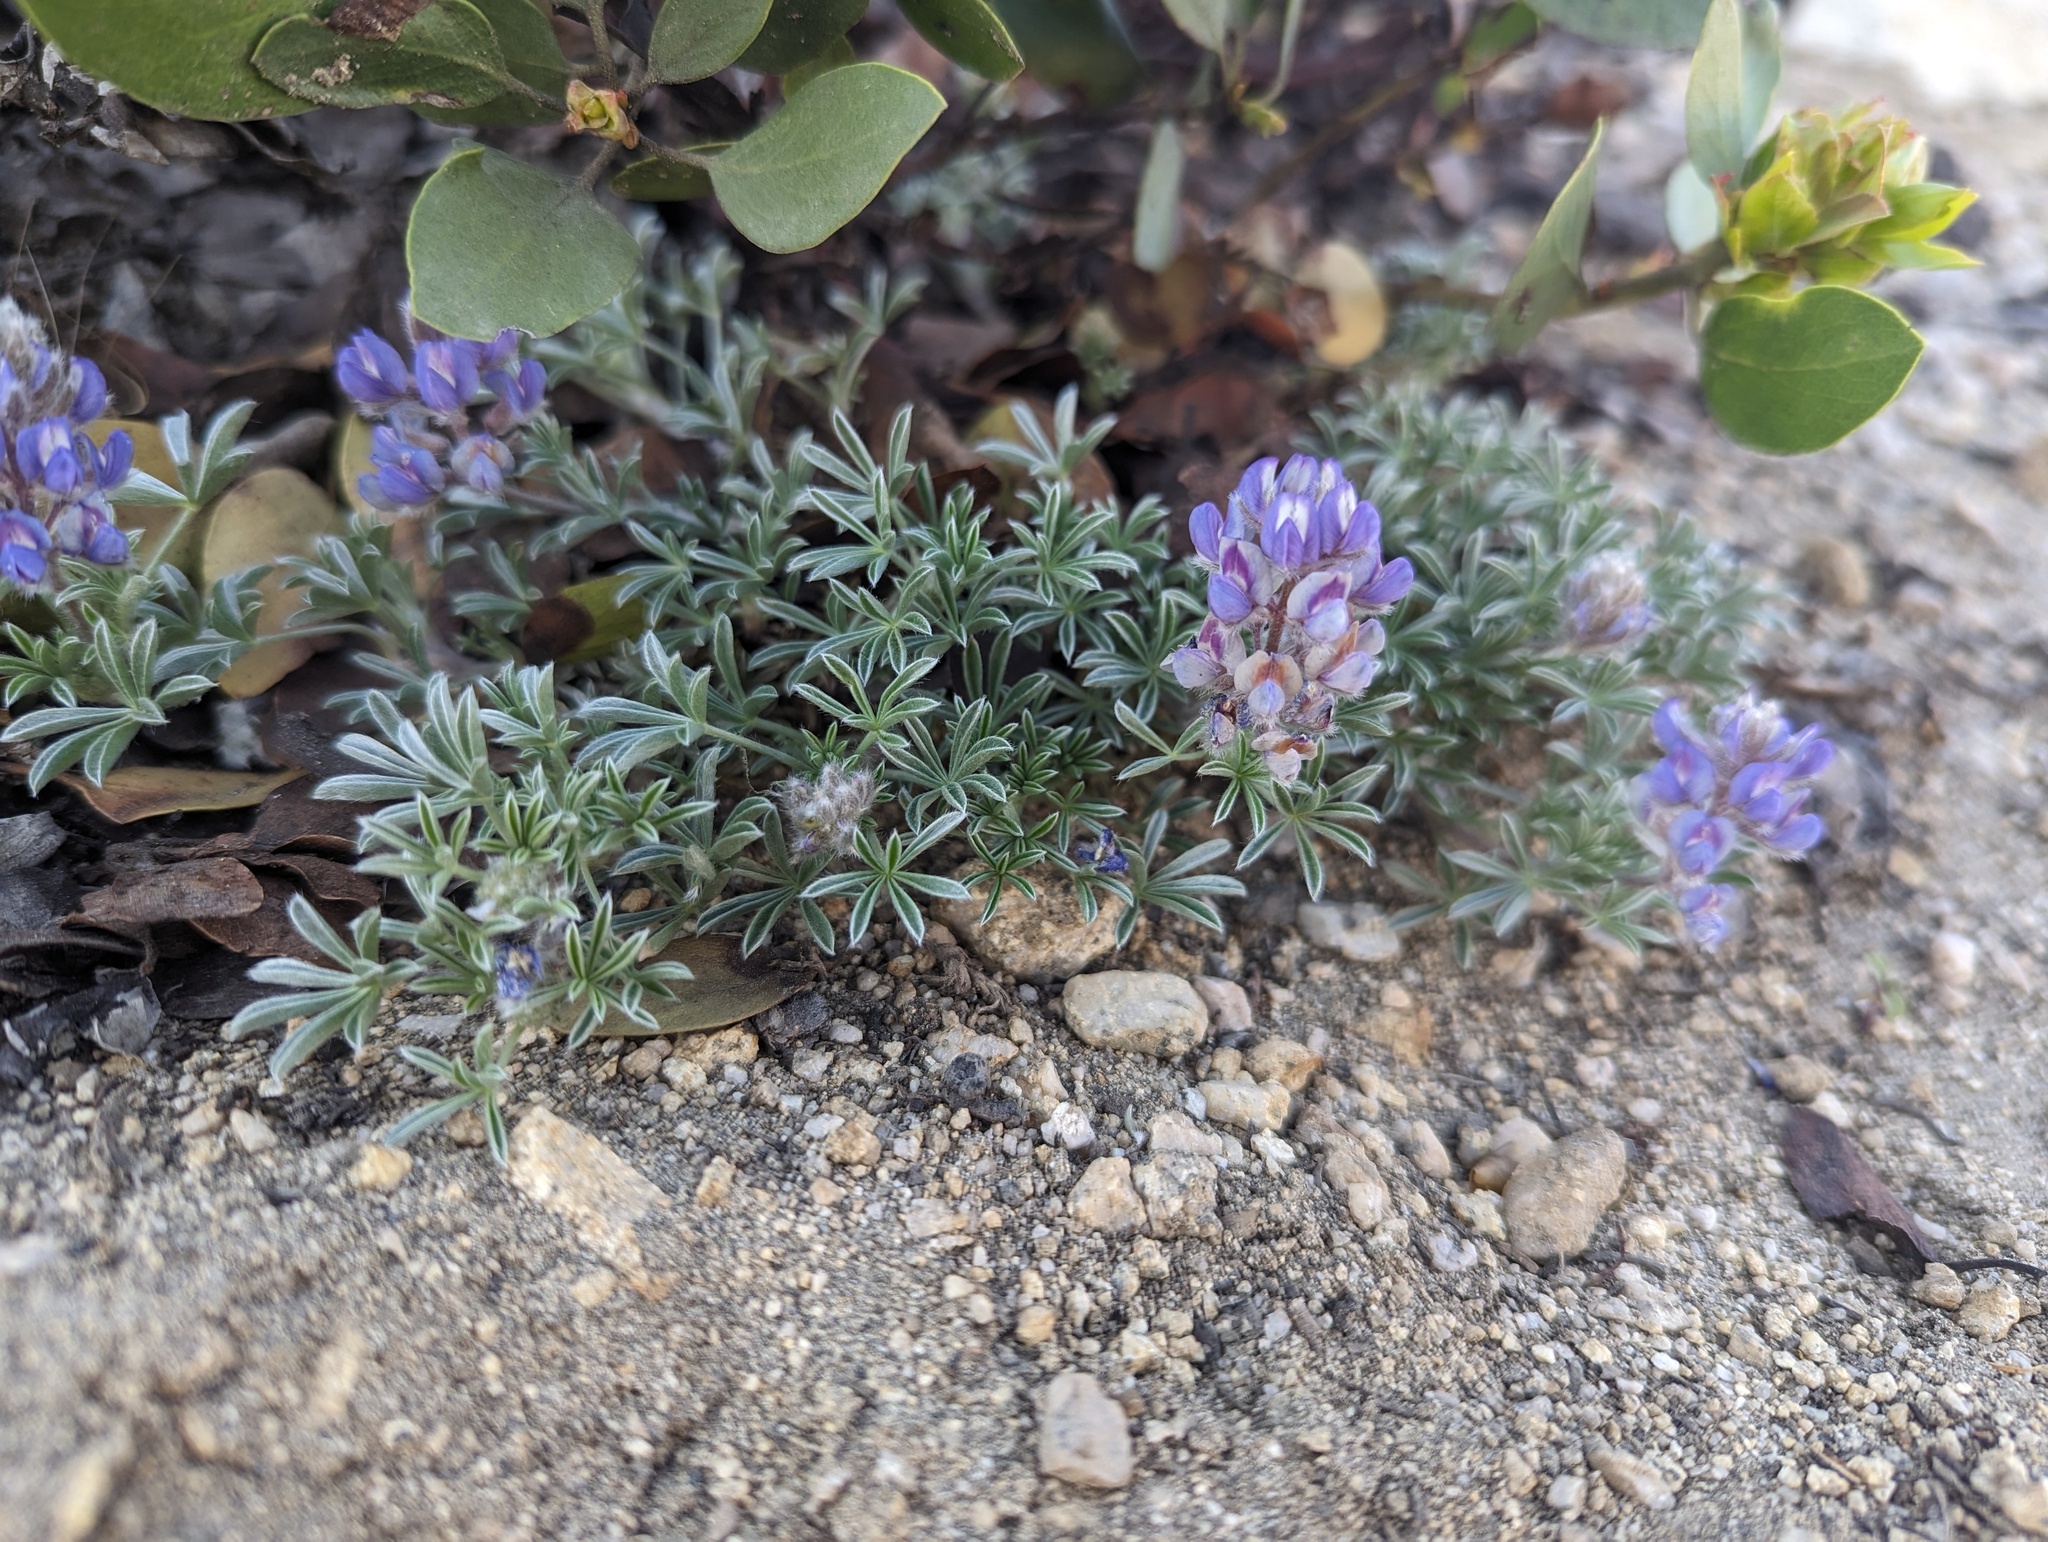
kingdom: Plantae
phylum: Tracheophyta
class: Magnoliopsida
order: Fabales
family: Fabaceae
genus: Lupinus
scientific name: Lupinus breweri
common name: Brewer's lupine
